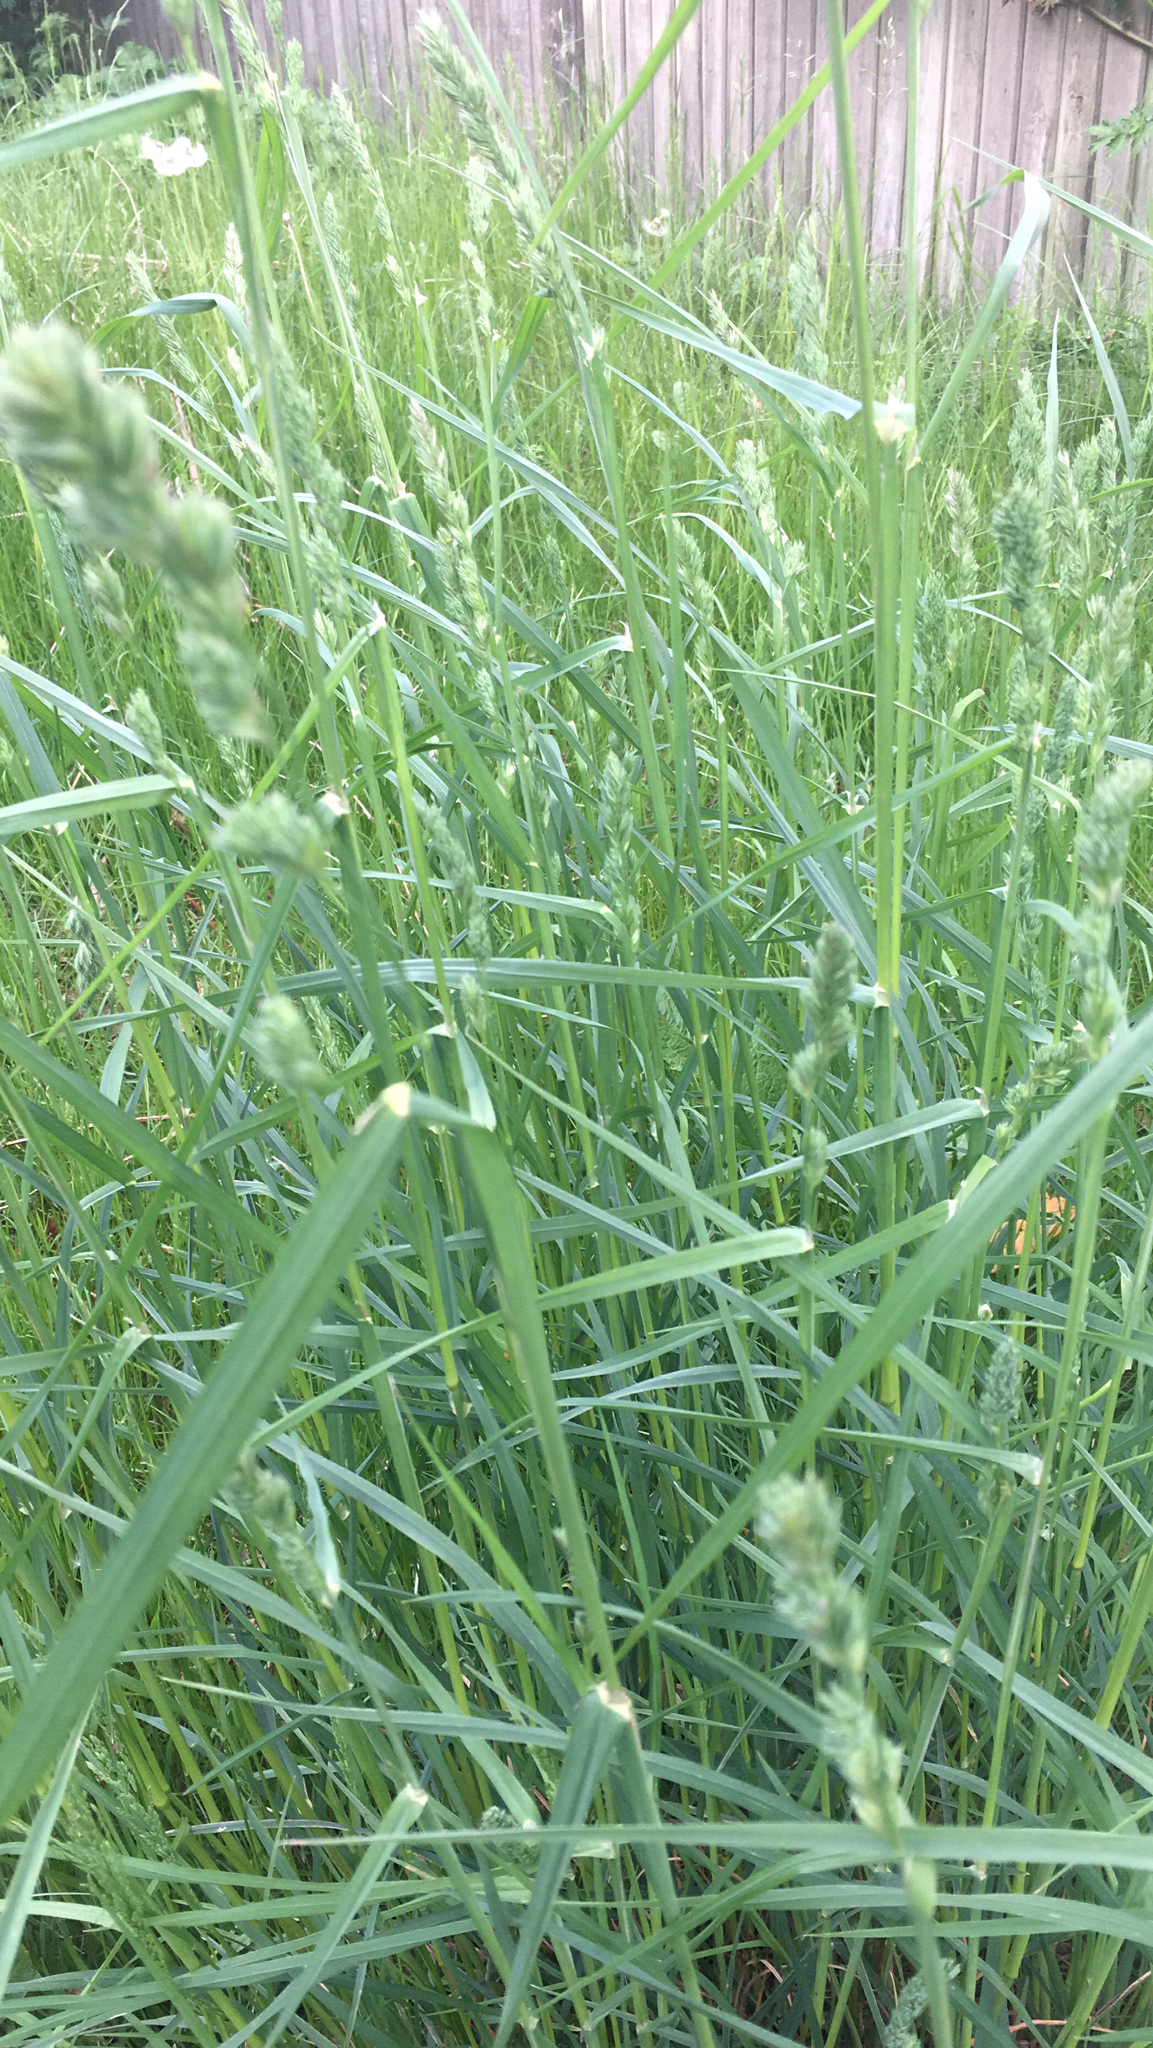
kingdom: Plantae
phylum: Tracheophyta
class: Liliopsida
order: Poales
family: Poaceae
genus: Dactylis
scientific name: Dactylis glomerata
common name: Orchardgrass
